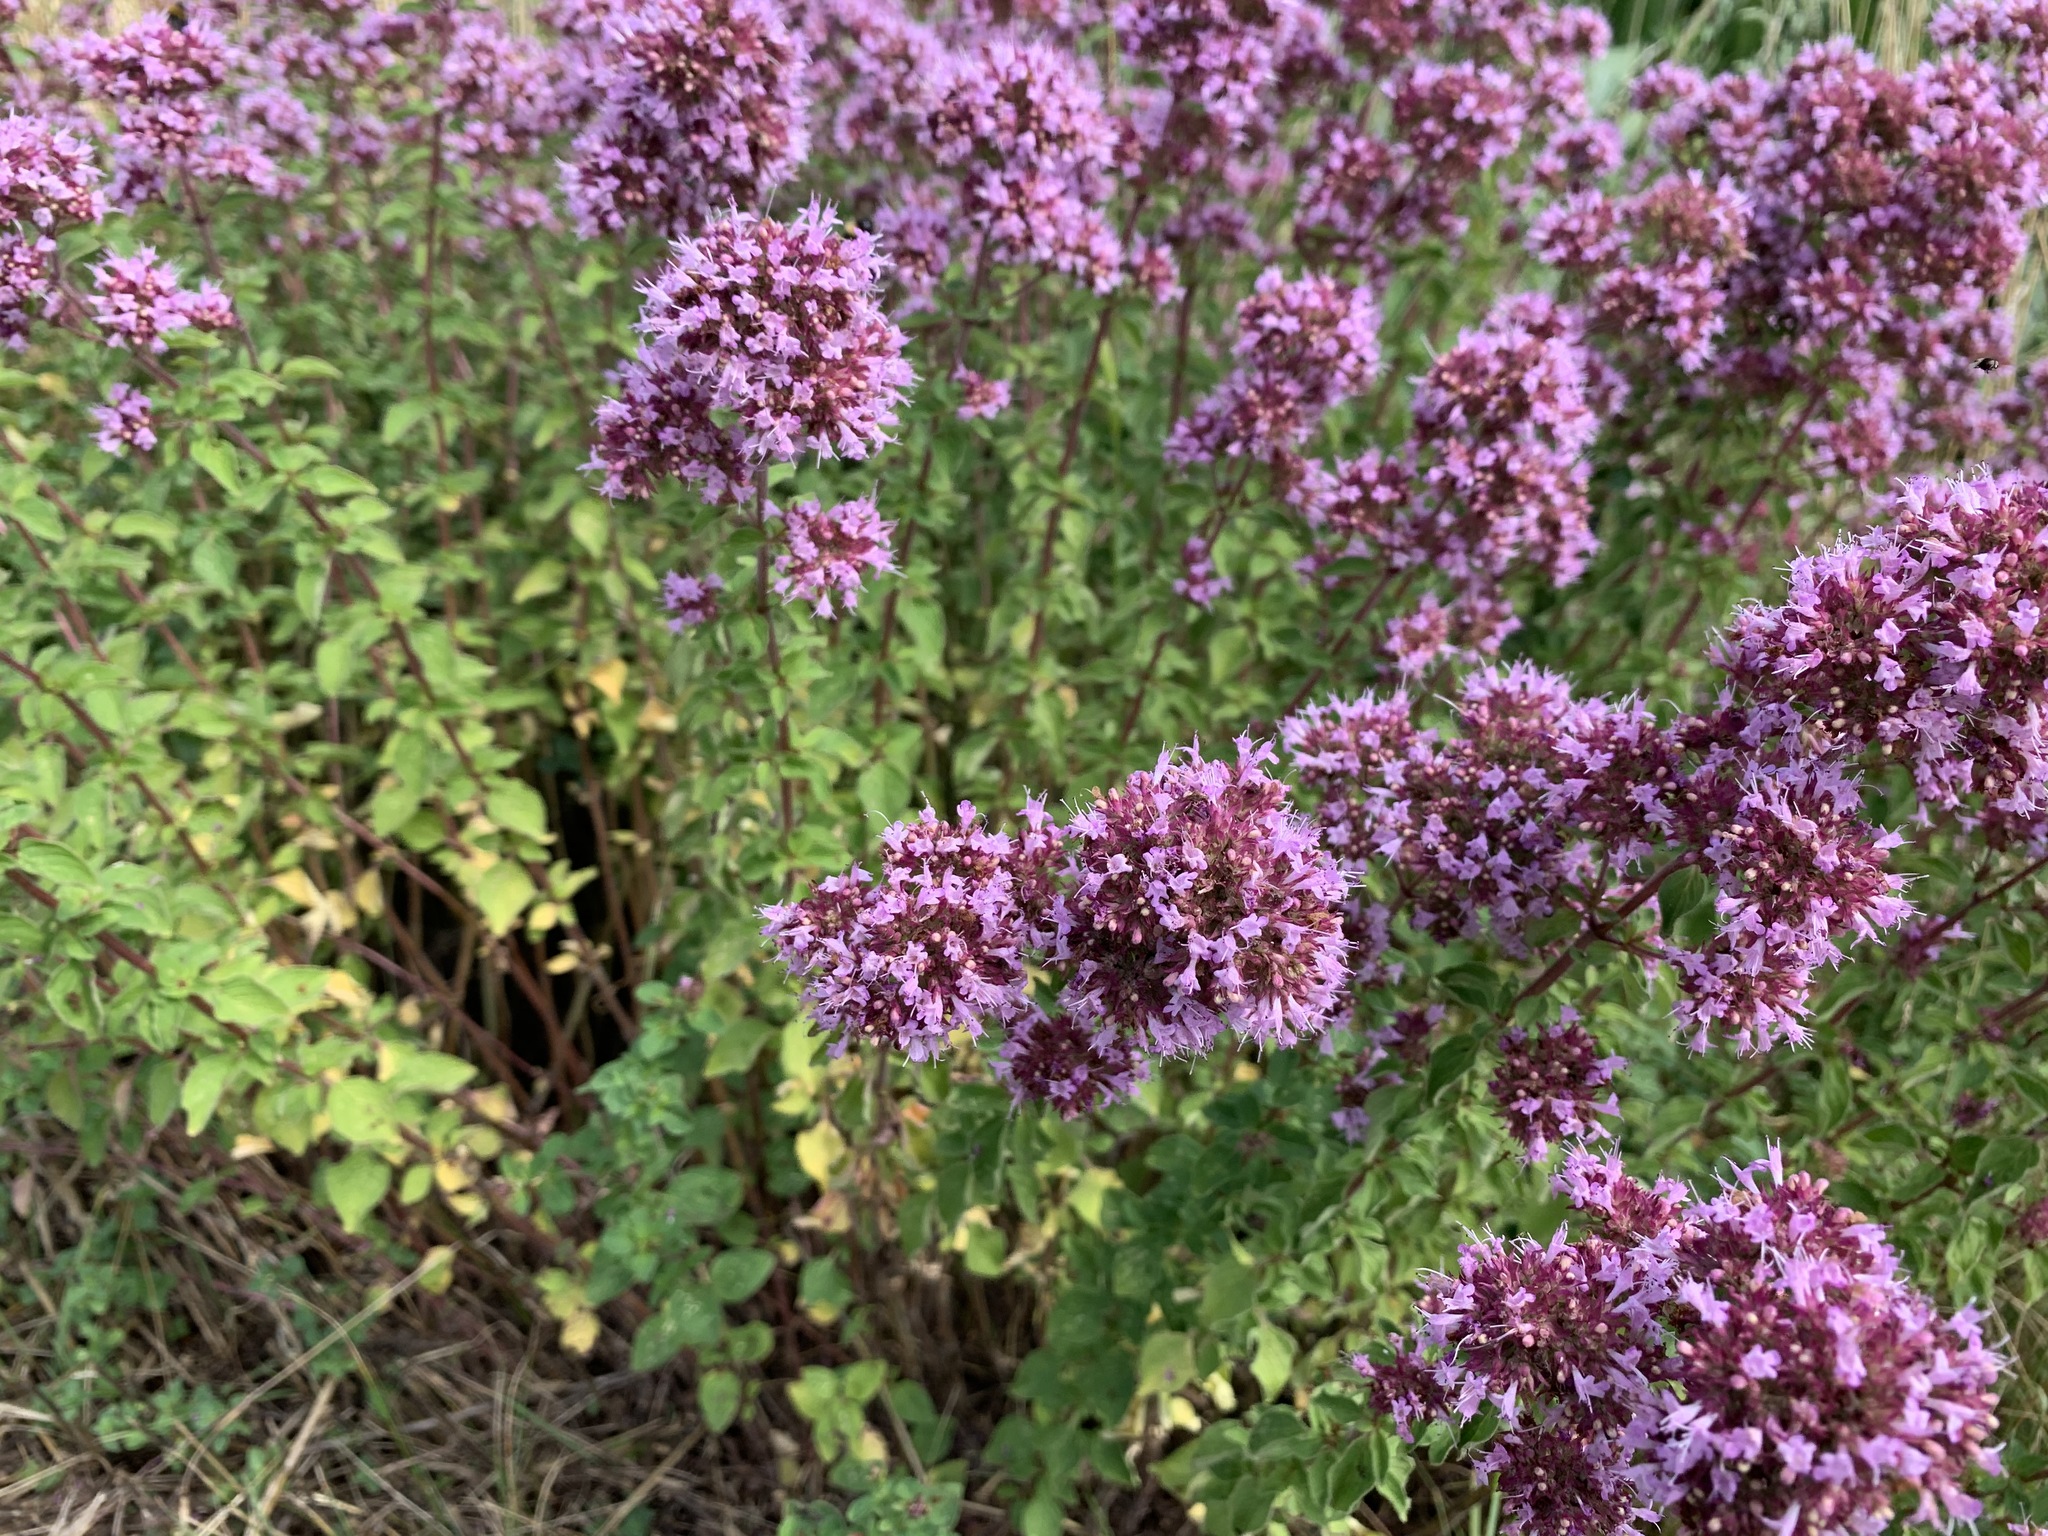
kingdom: Plantae
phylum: Tracheophyta
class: Magnoliopsida
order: Lamiales
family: Lamiaceae
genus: Origanum
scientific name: Origanum vulgare
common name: Wild marjoram
